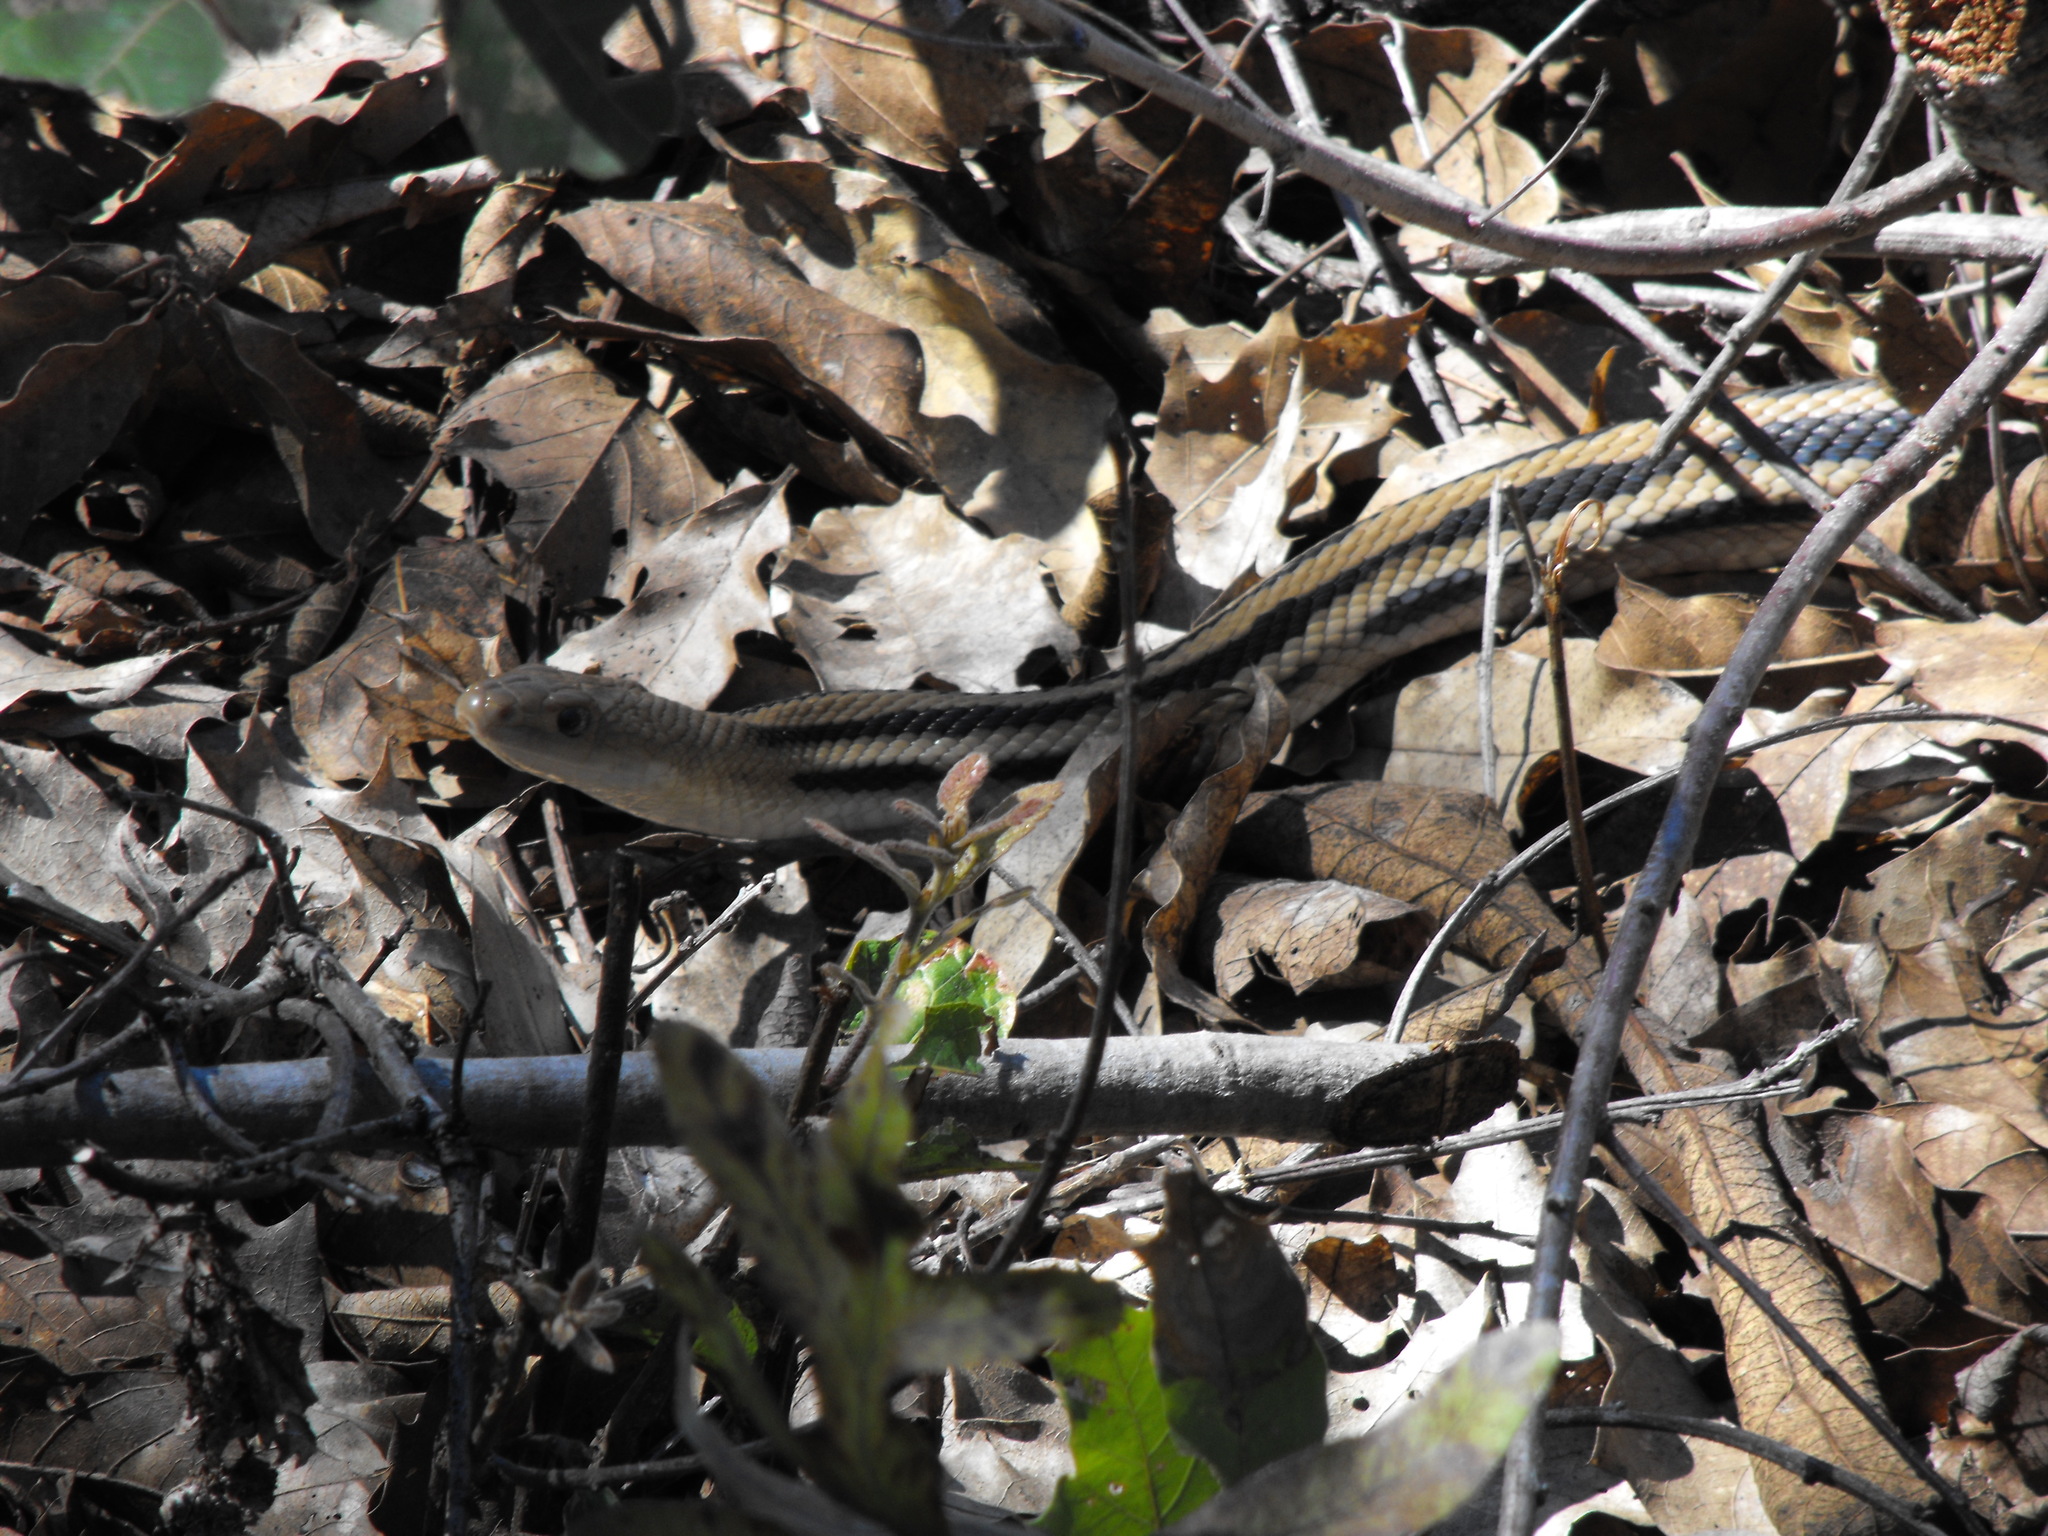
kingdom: Animalia
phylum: Chordata
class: Squamata
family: Colubridae
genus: Pituophis
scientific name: Pituophis lineaticollis
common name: Cincuate bull snake
